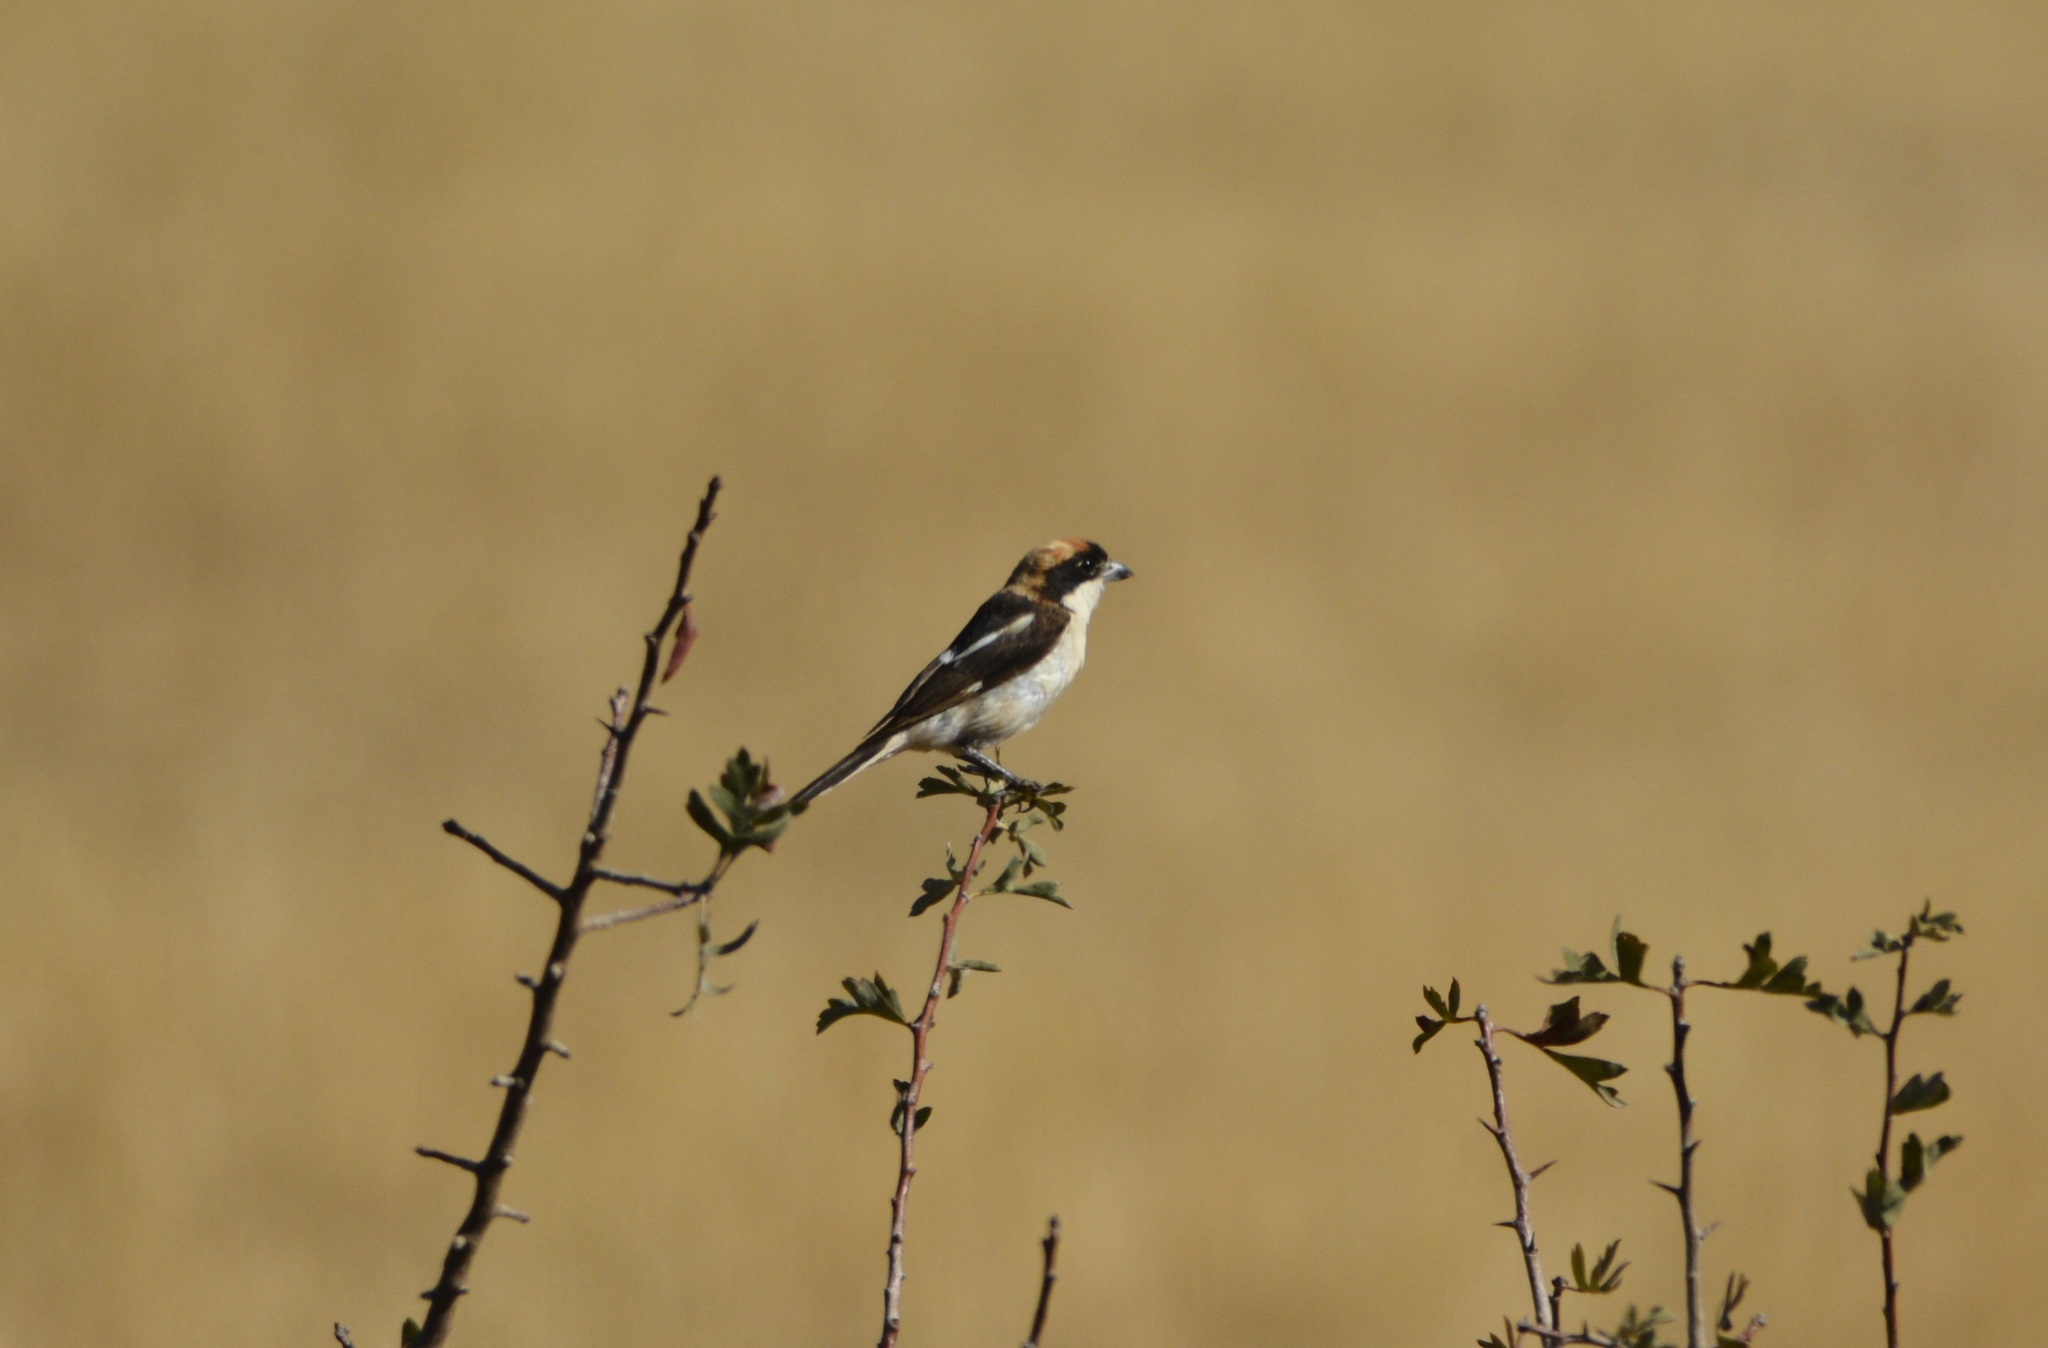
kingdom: Animalia
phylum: Chordata
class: Aves
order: Passeriformes
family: Laniidae
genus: Lanius
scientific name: Lanius senator
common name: Woodchat shrike
